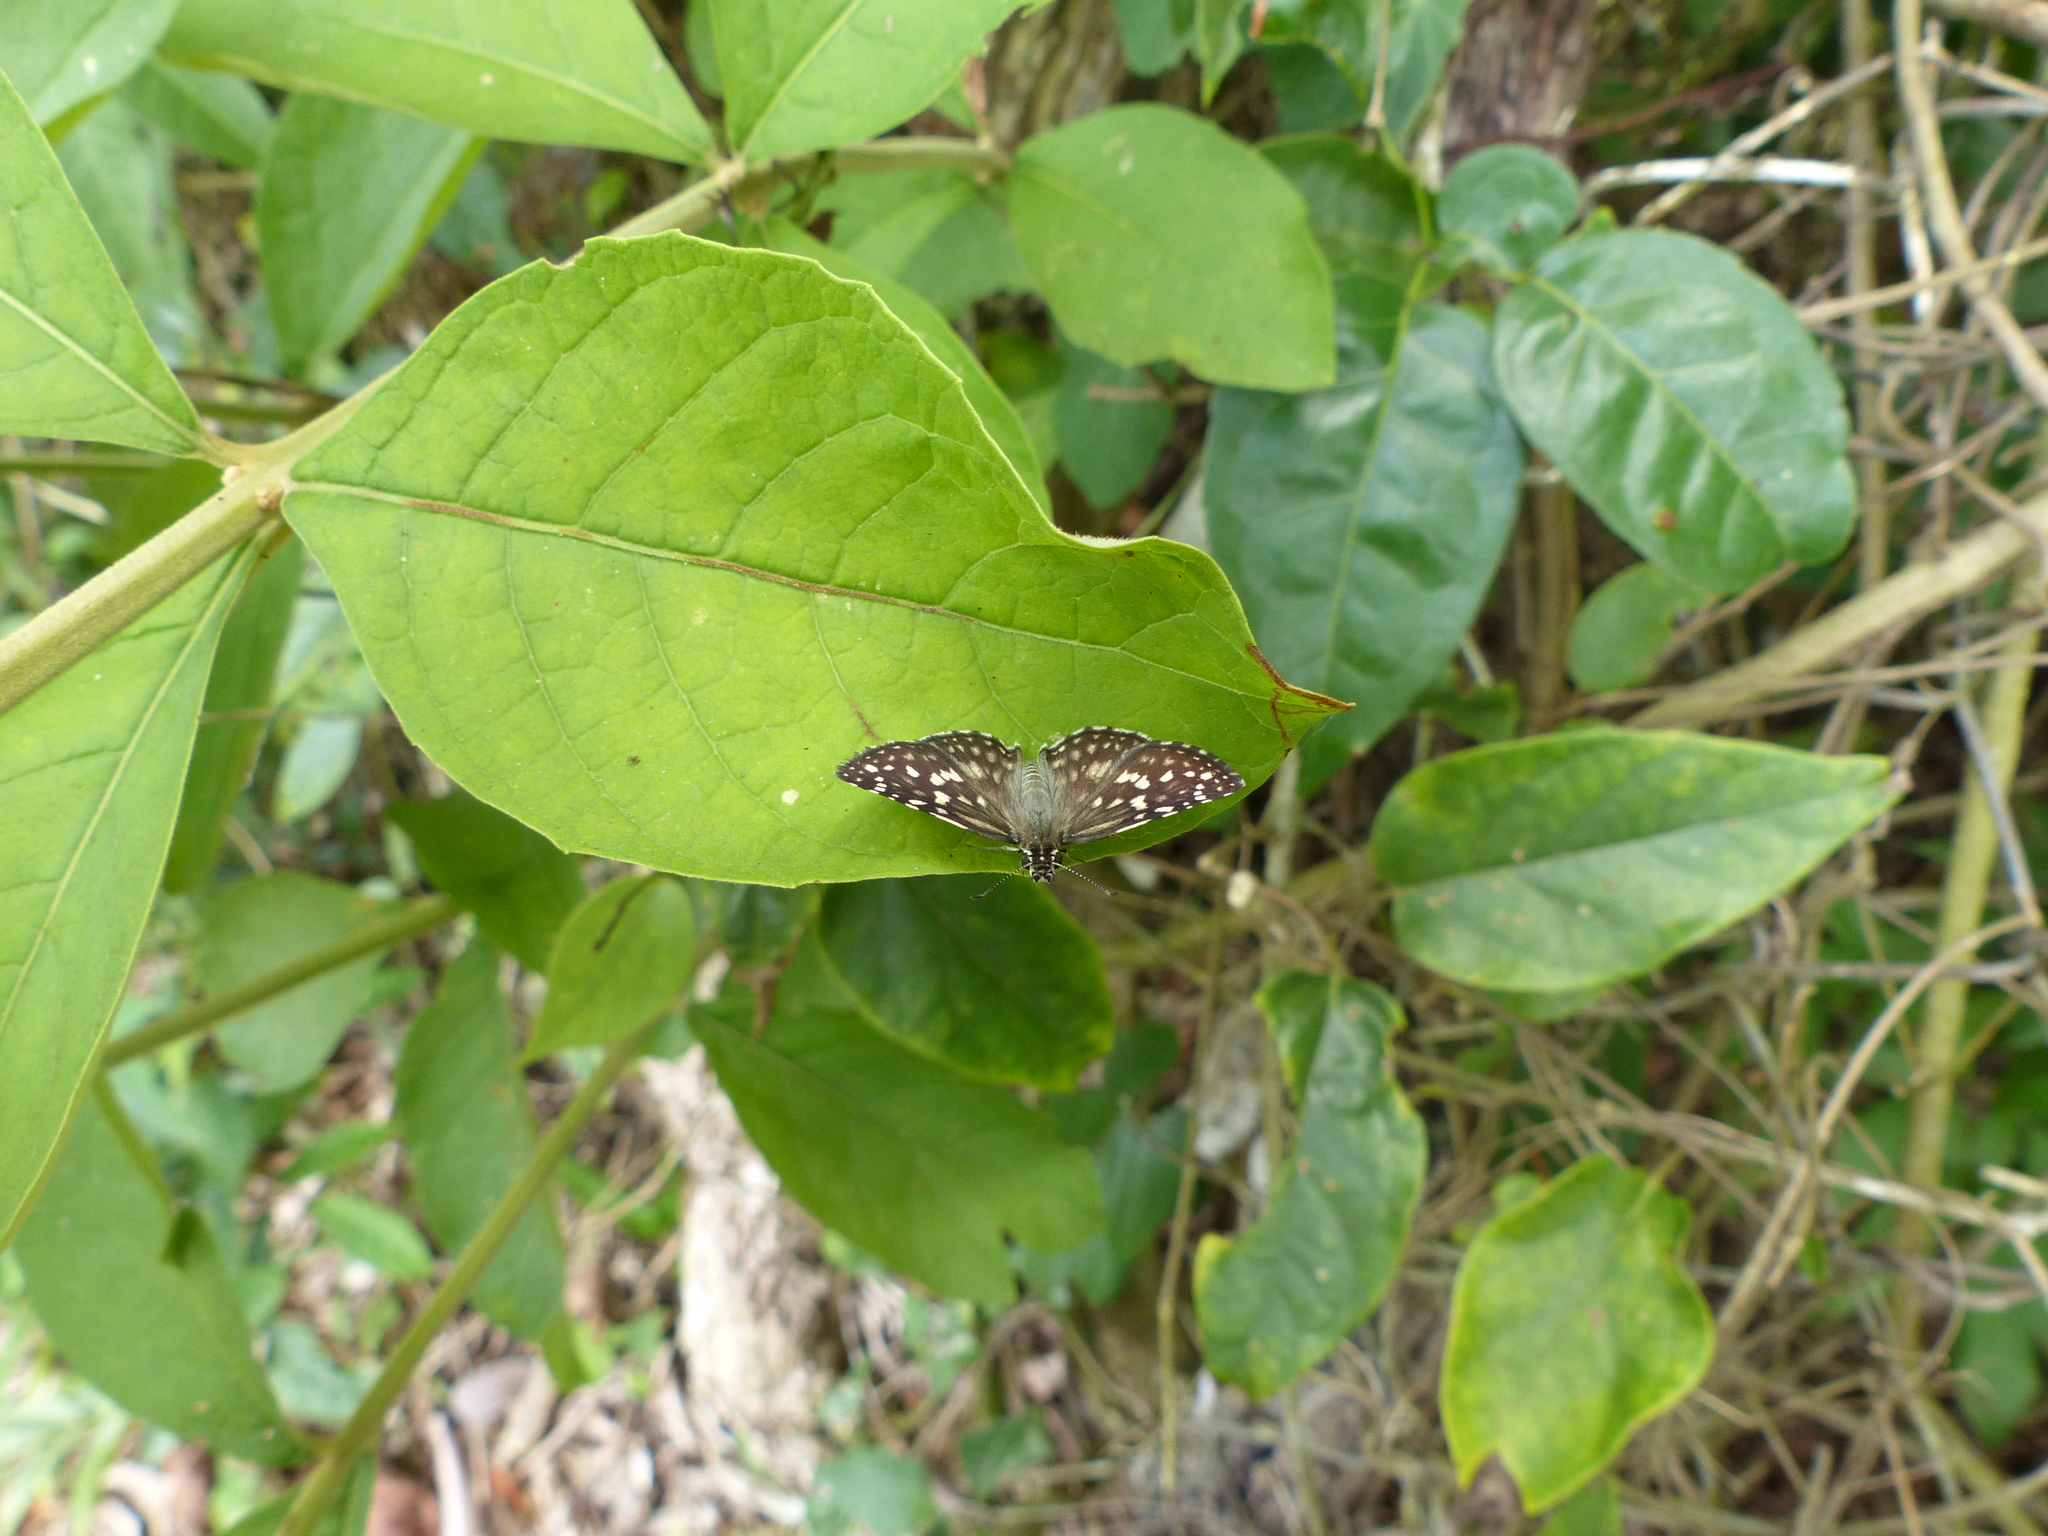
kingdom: Animalia
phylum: Arthropoda
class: Insecta
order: Lepidoptera
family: Hesperiidae
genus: Pyrgus
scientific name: Pyrgus oileus
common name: Tropical checkered-skipper
